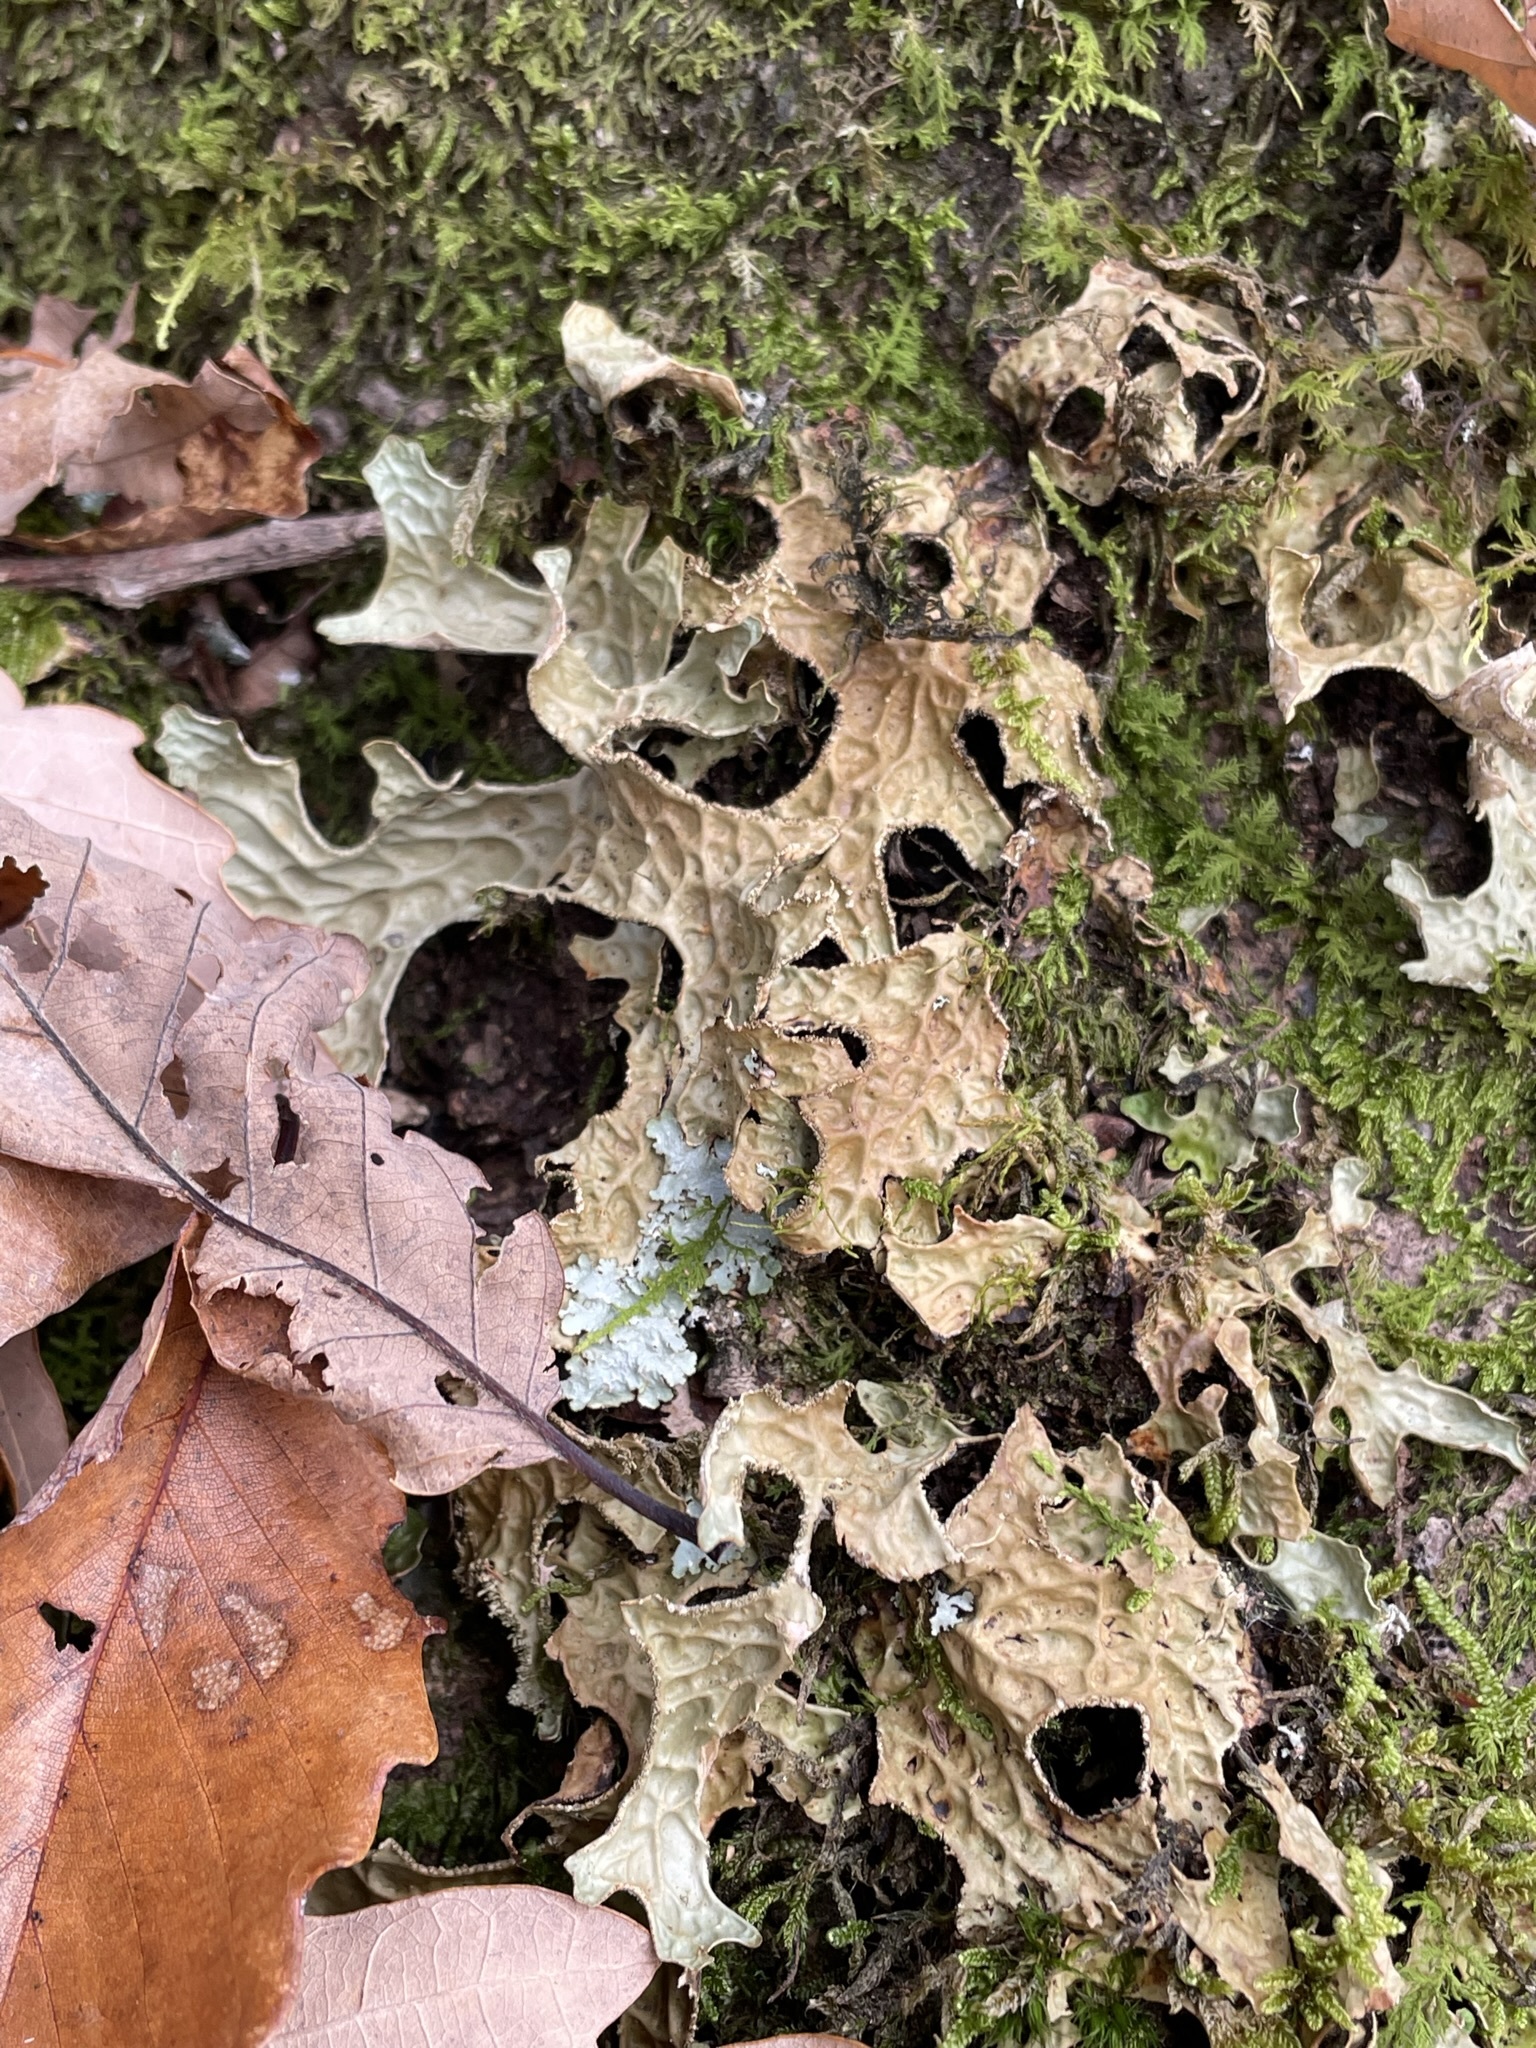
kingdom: Fungi
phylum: Ascomycota
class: Lecanoromycetes
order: Peltigerales
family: Lobariaceae
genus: Lobaria
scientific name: Lobaria pulmonaria
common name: Lungwort
